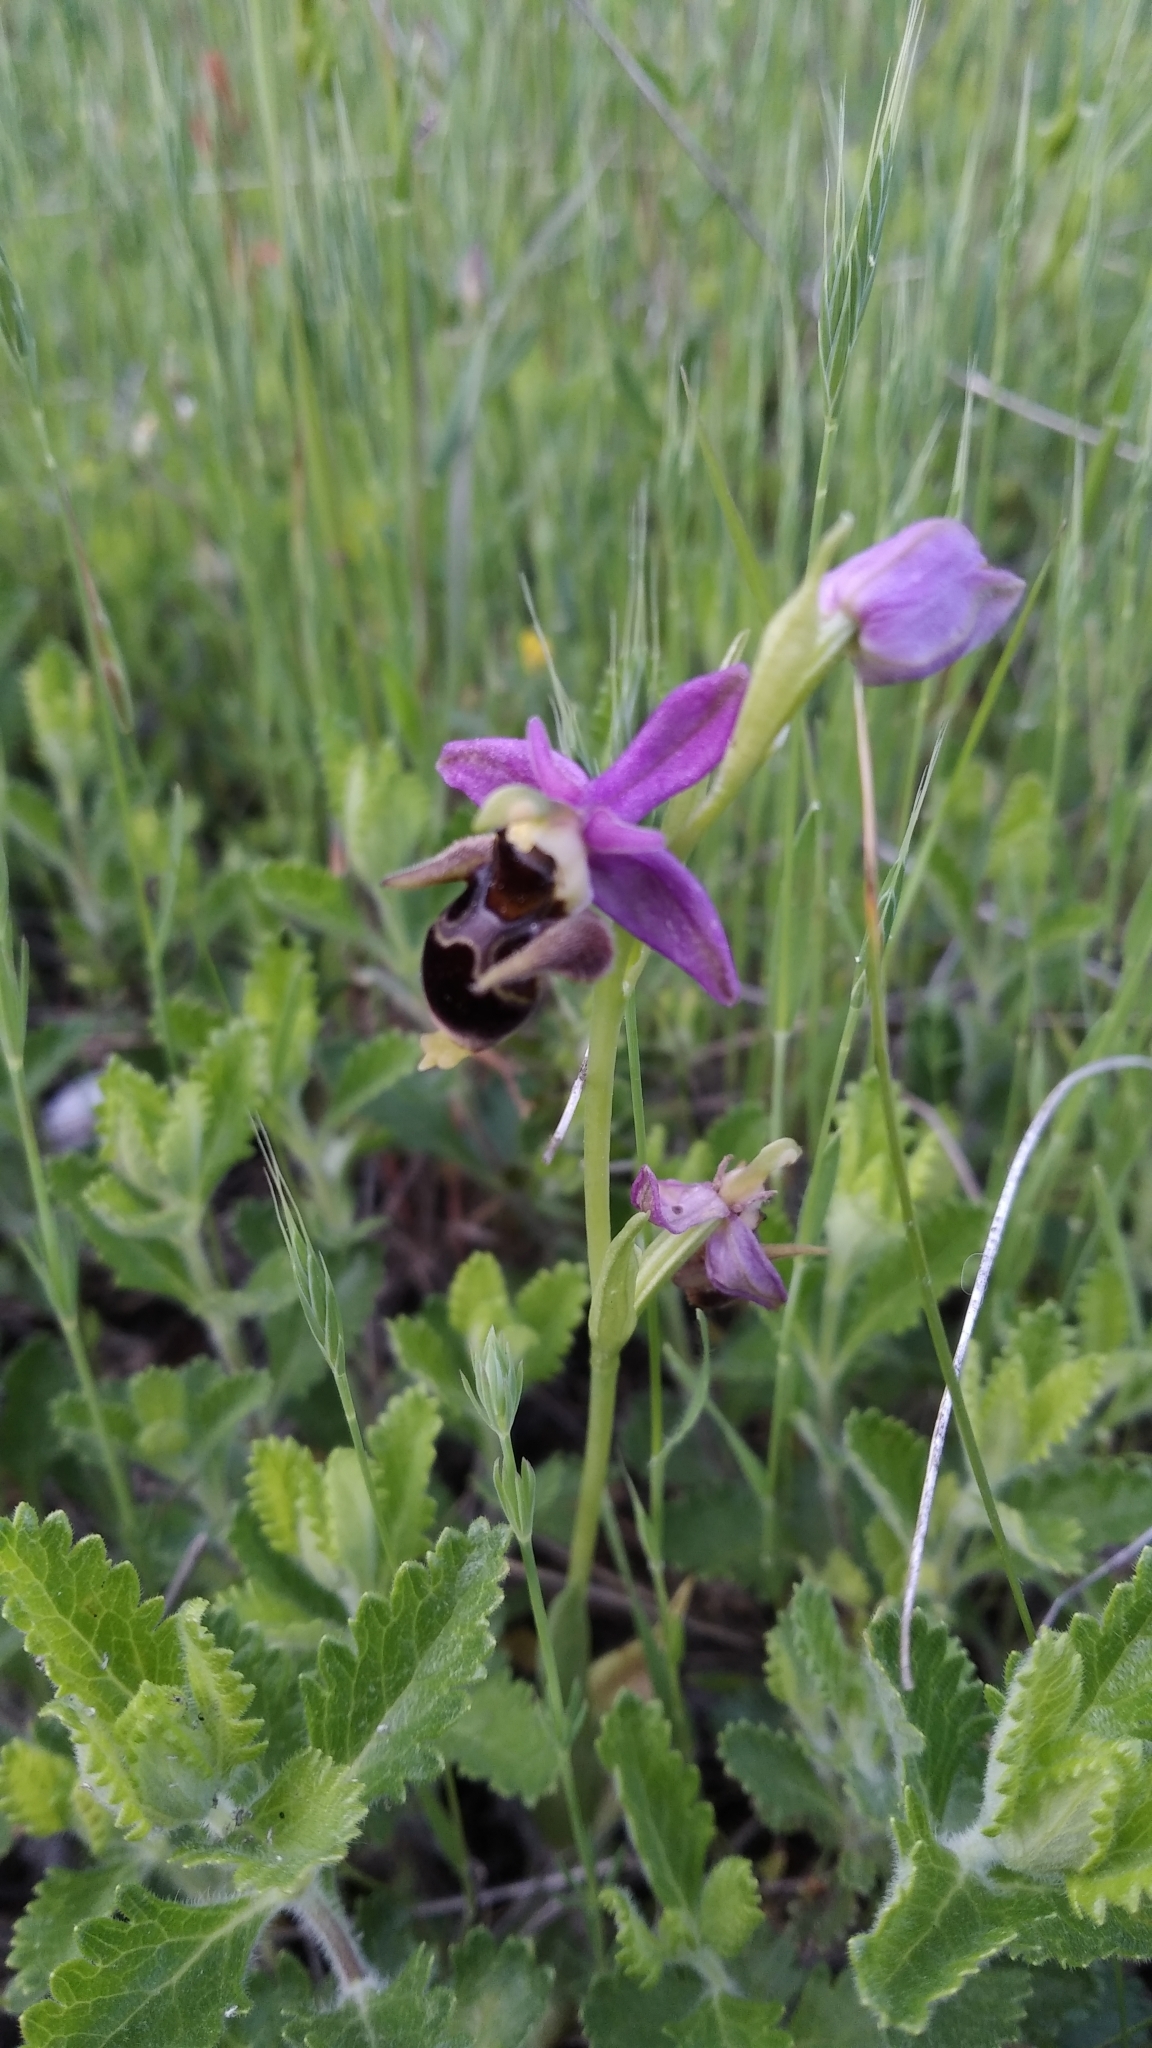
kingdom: Plantae
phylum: Tracheophyta
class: Liliopsida
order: Asparagales
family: Orchidaceae
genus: Ophrys
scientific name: Ophrys
